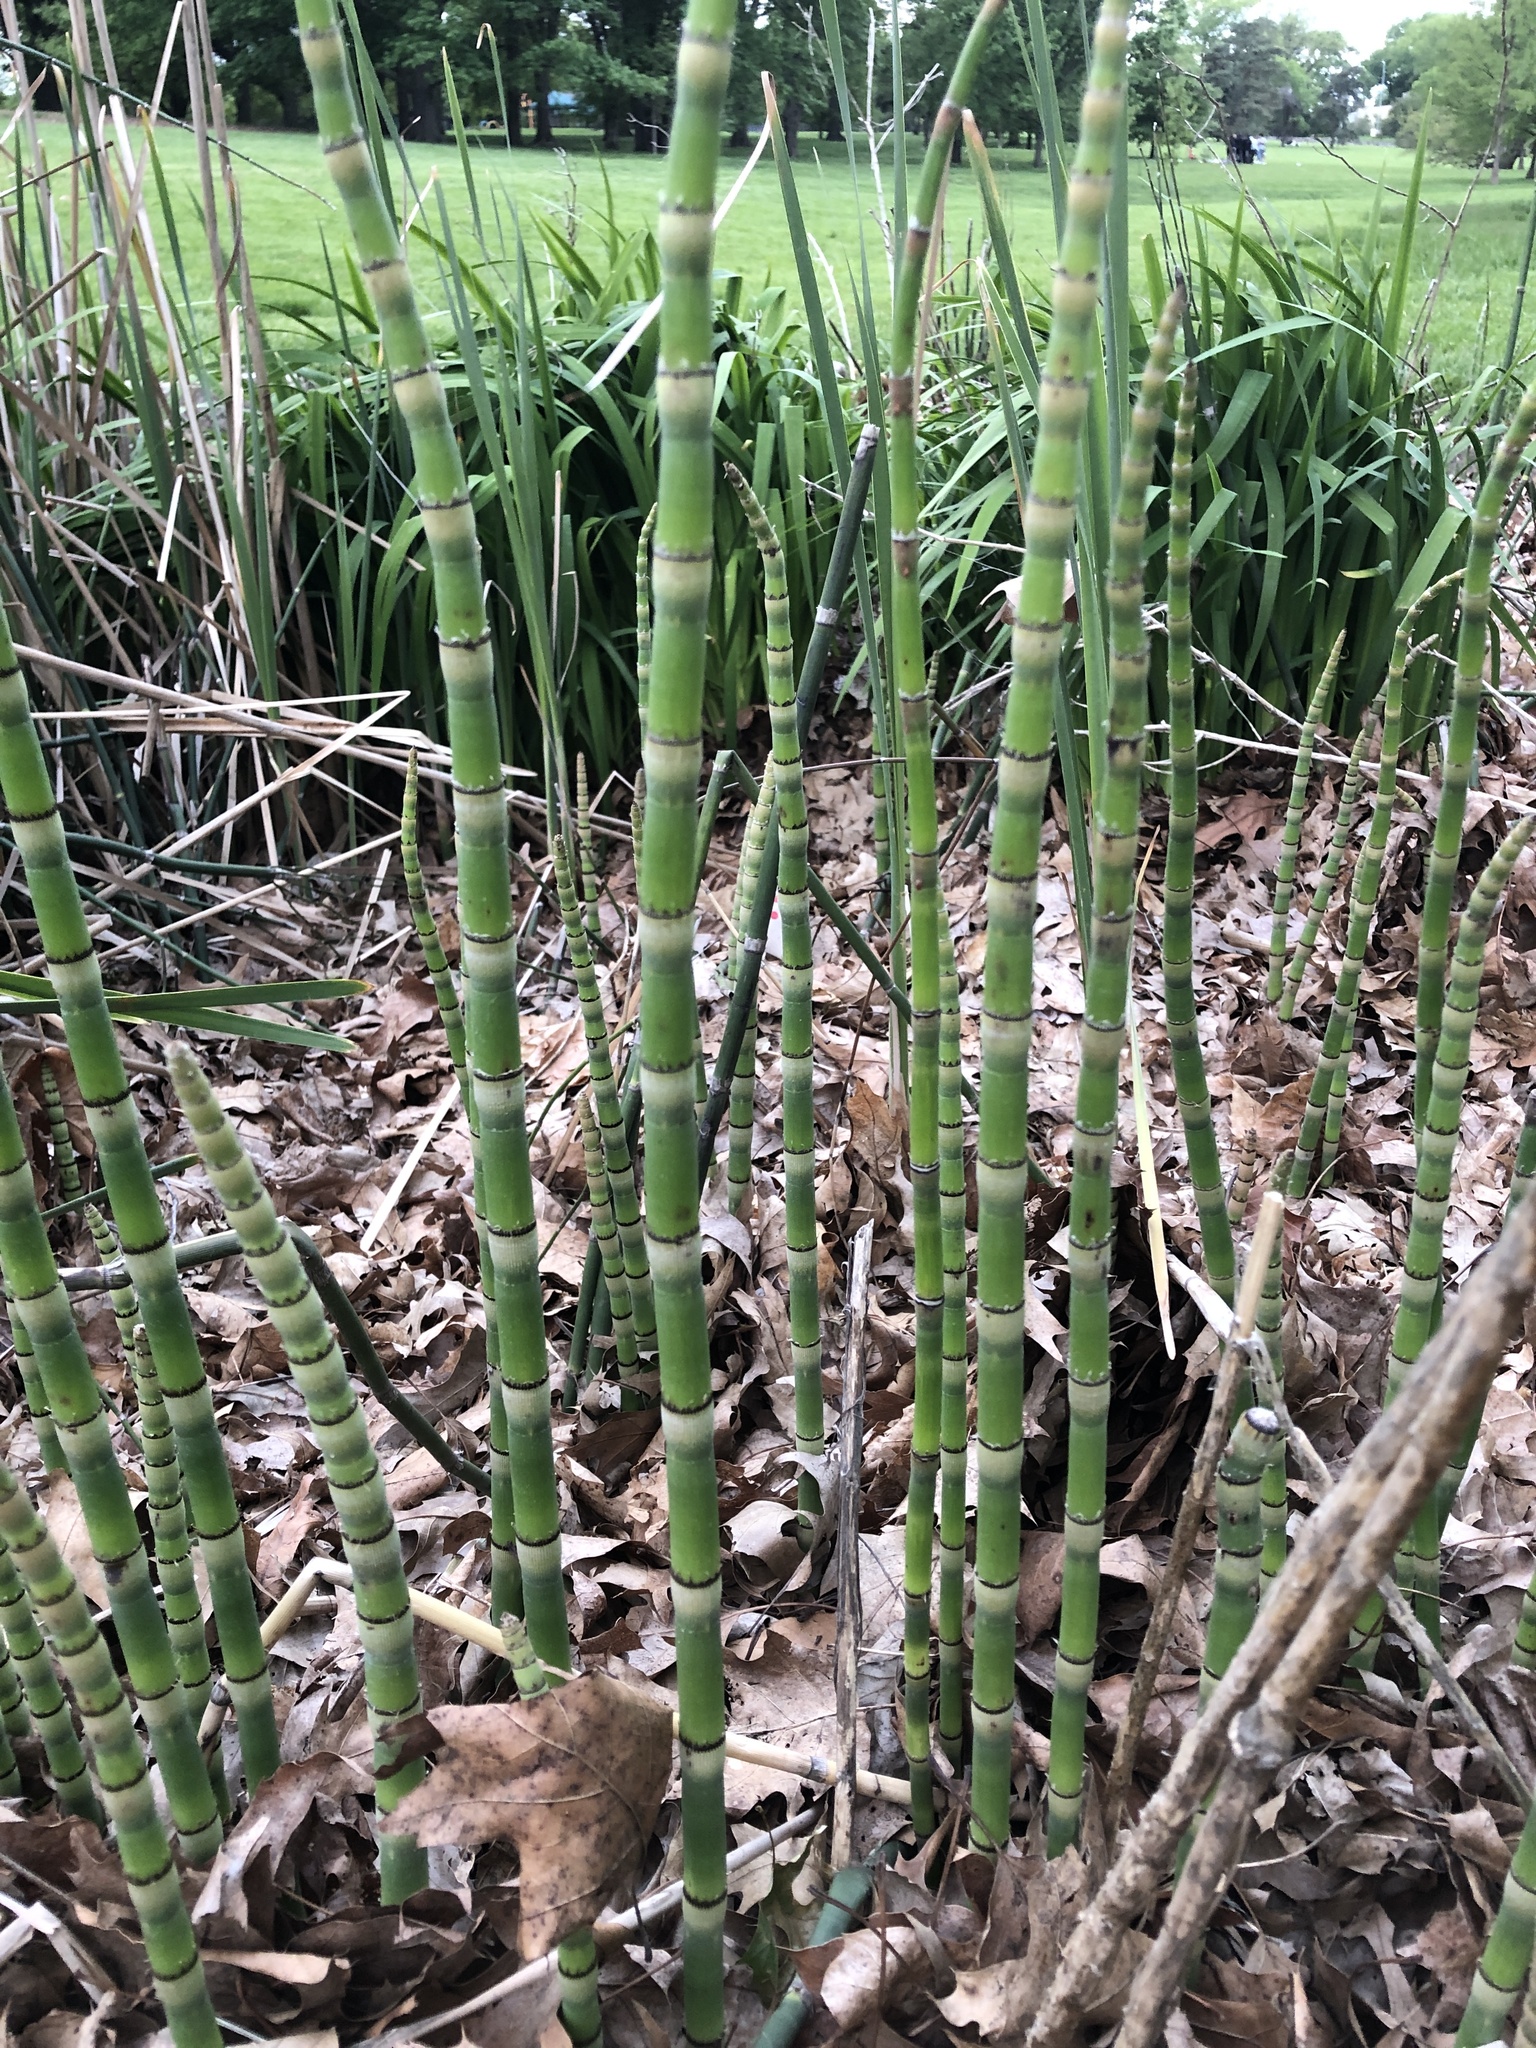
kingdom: Plantae
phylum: Tracheophyta
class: Polypodiopsida
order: Equisetales
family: Equisetaceae
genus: Equisetum
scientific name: Equisetum hyemale
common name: Rough horsetail
